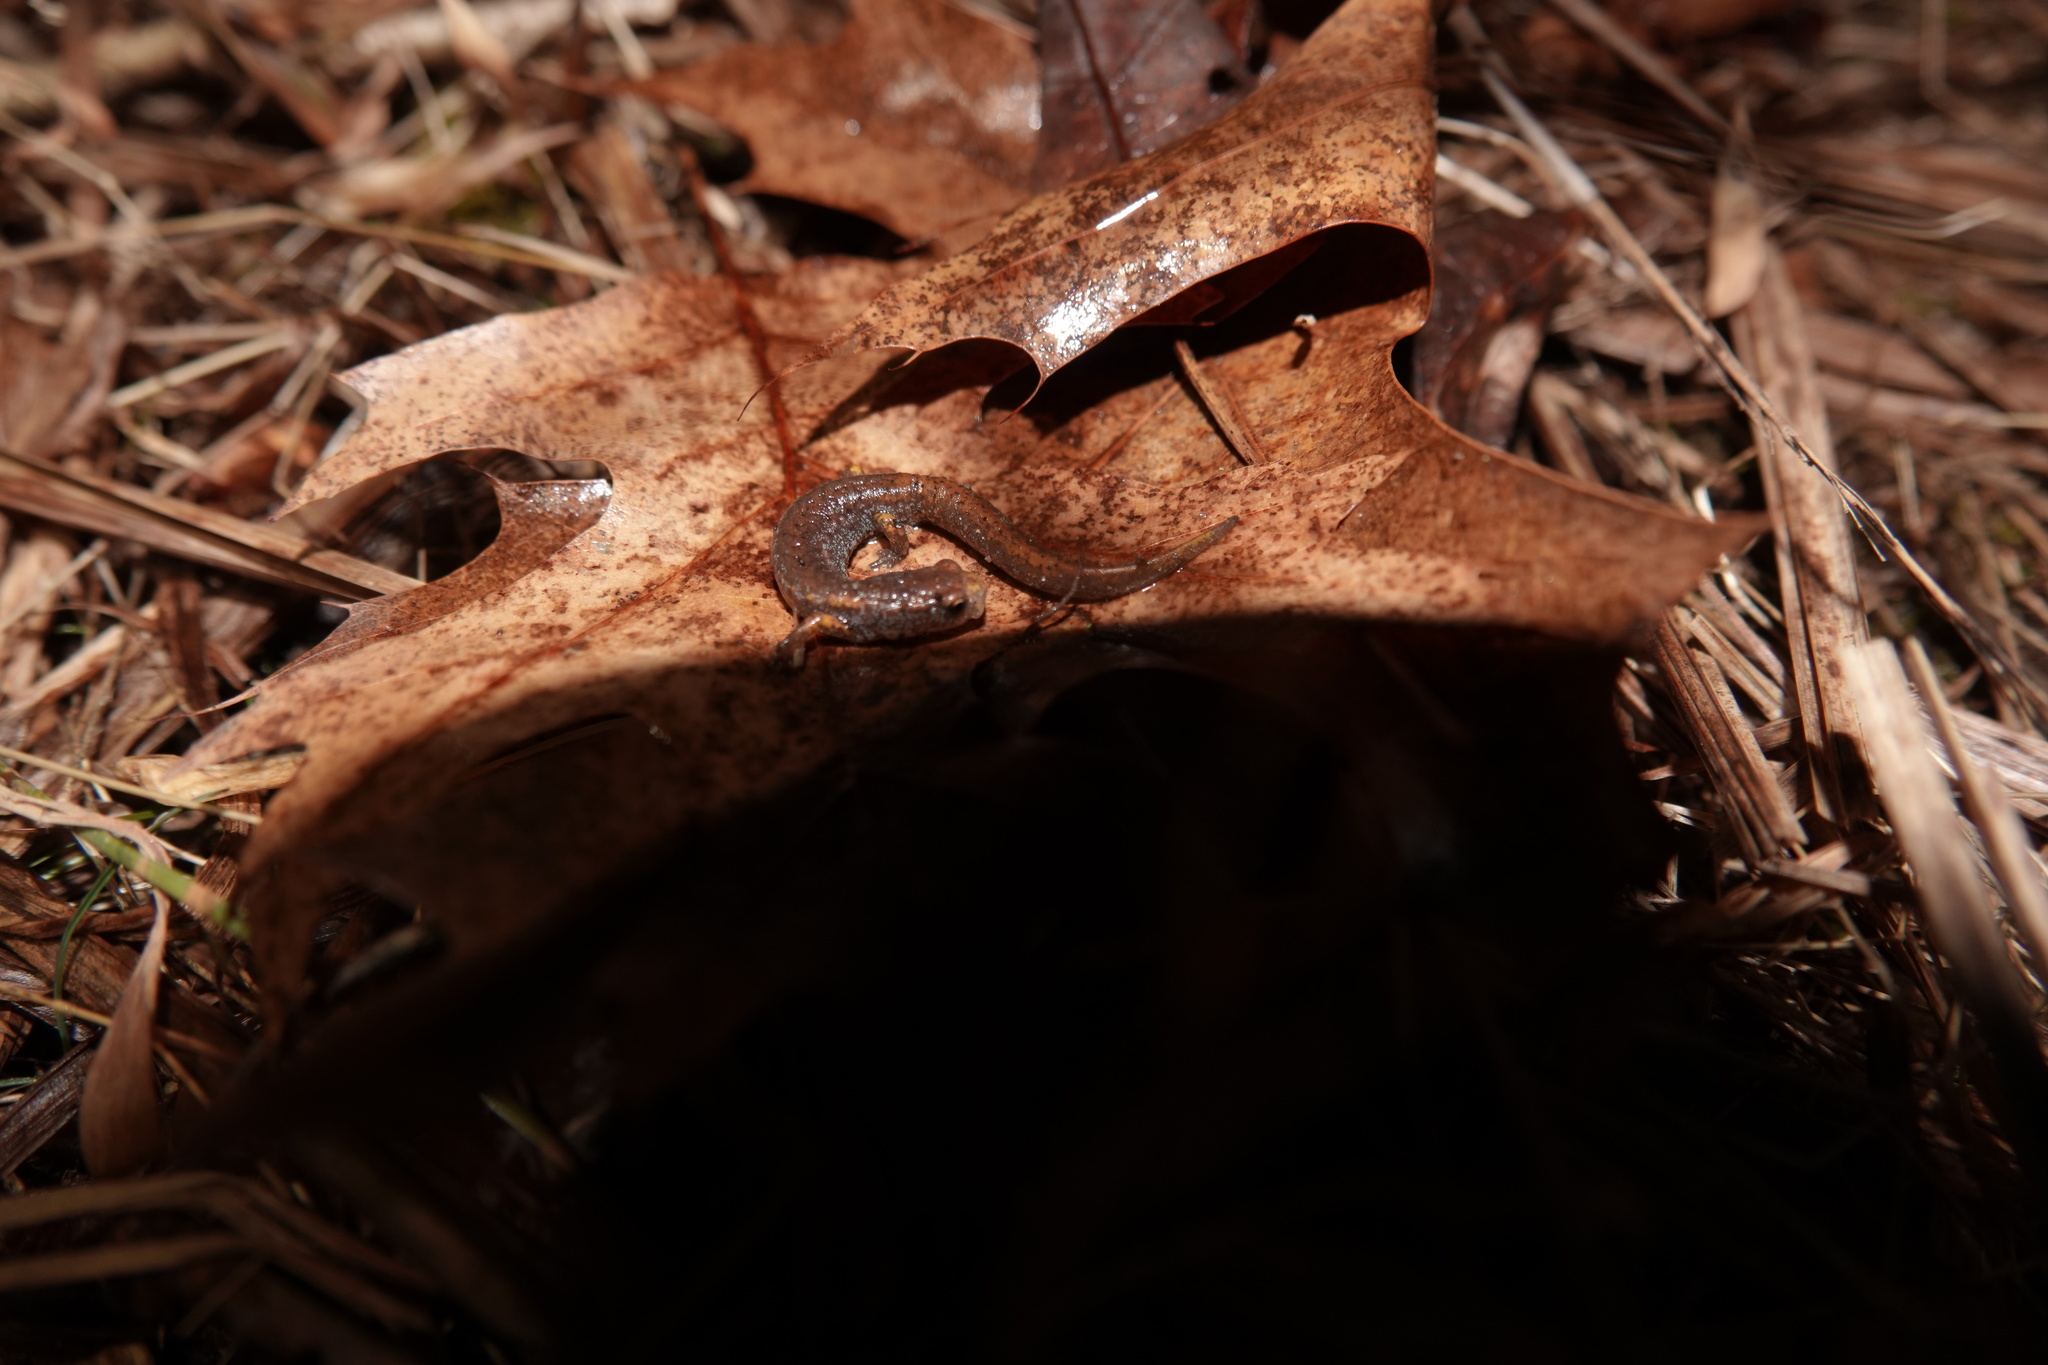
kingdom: Animalia
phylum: Chordata
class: Amphibia
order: Caudata
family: Plethodontidae
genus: Hemidactylium
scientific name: Hemidactylium scutatum
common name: Four-toed salamander
